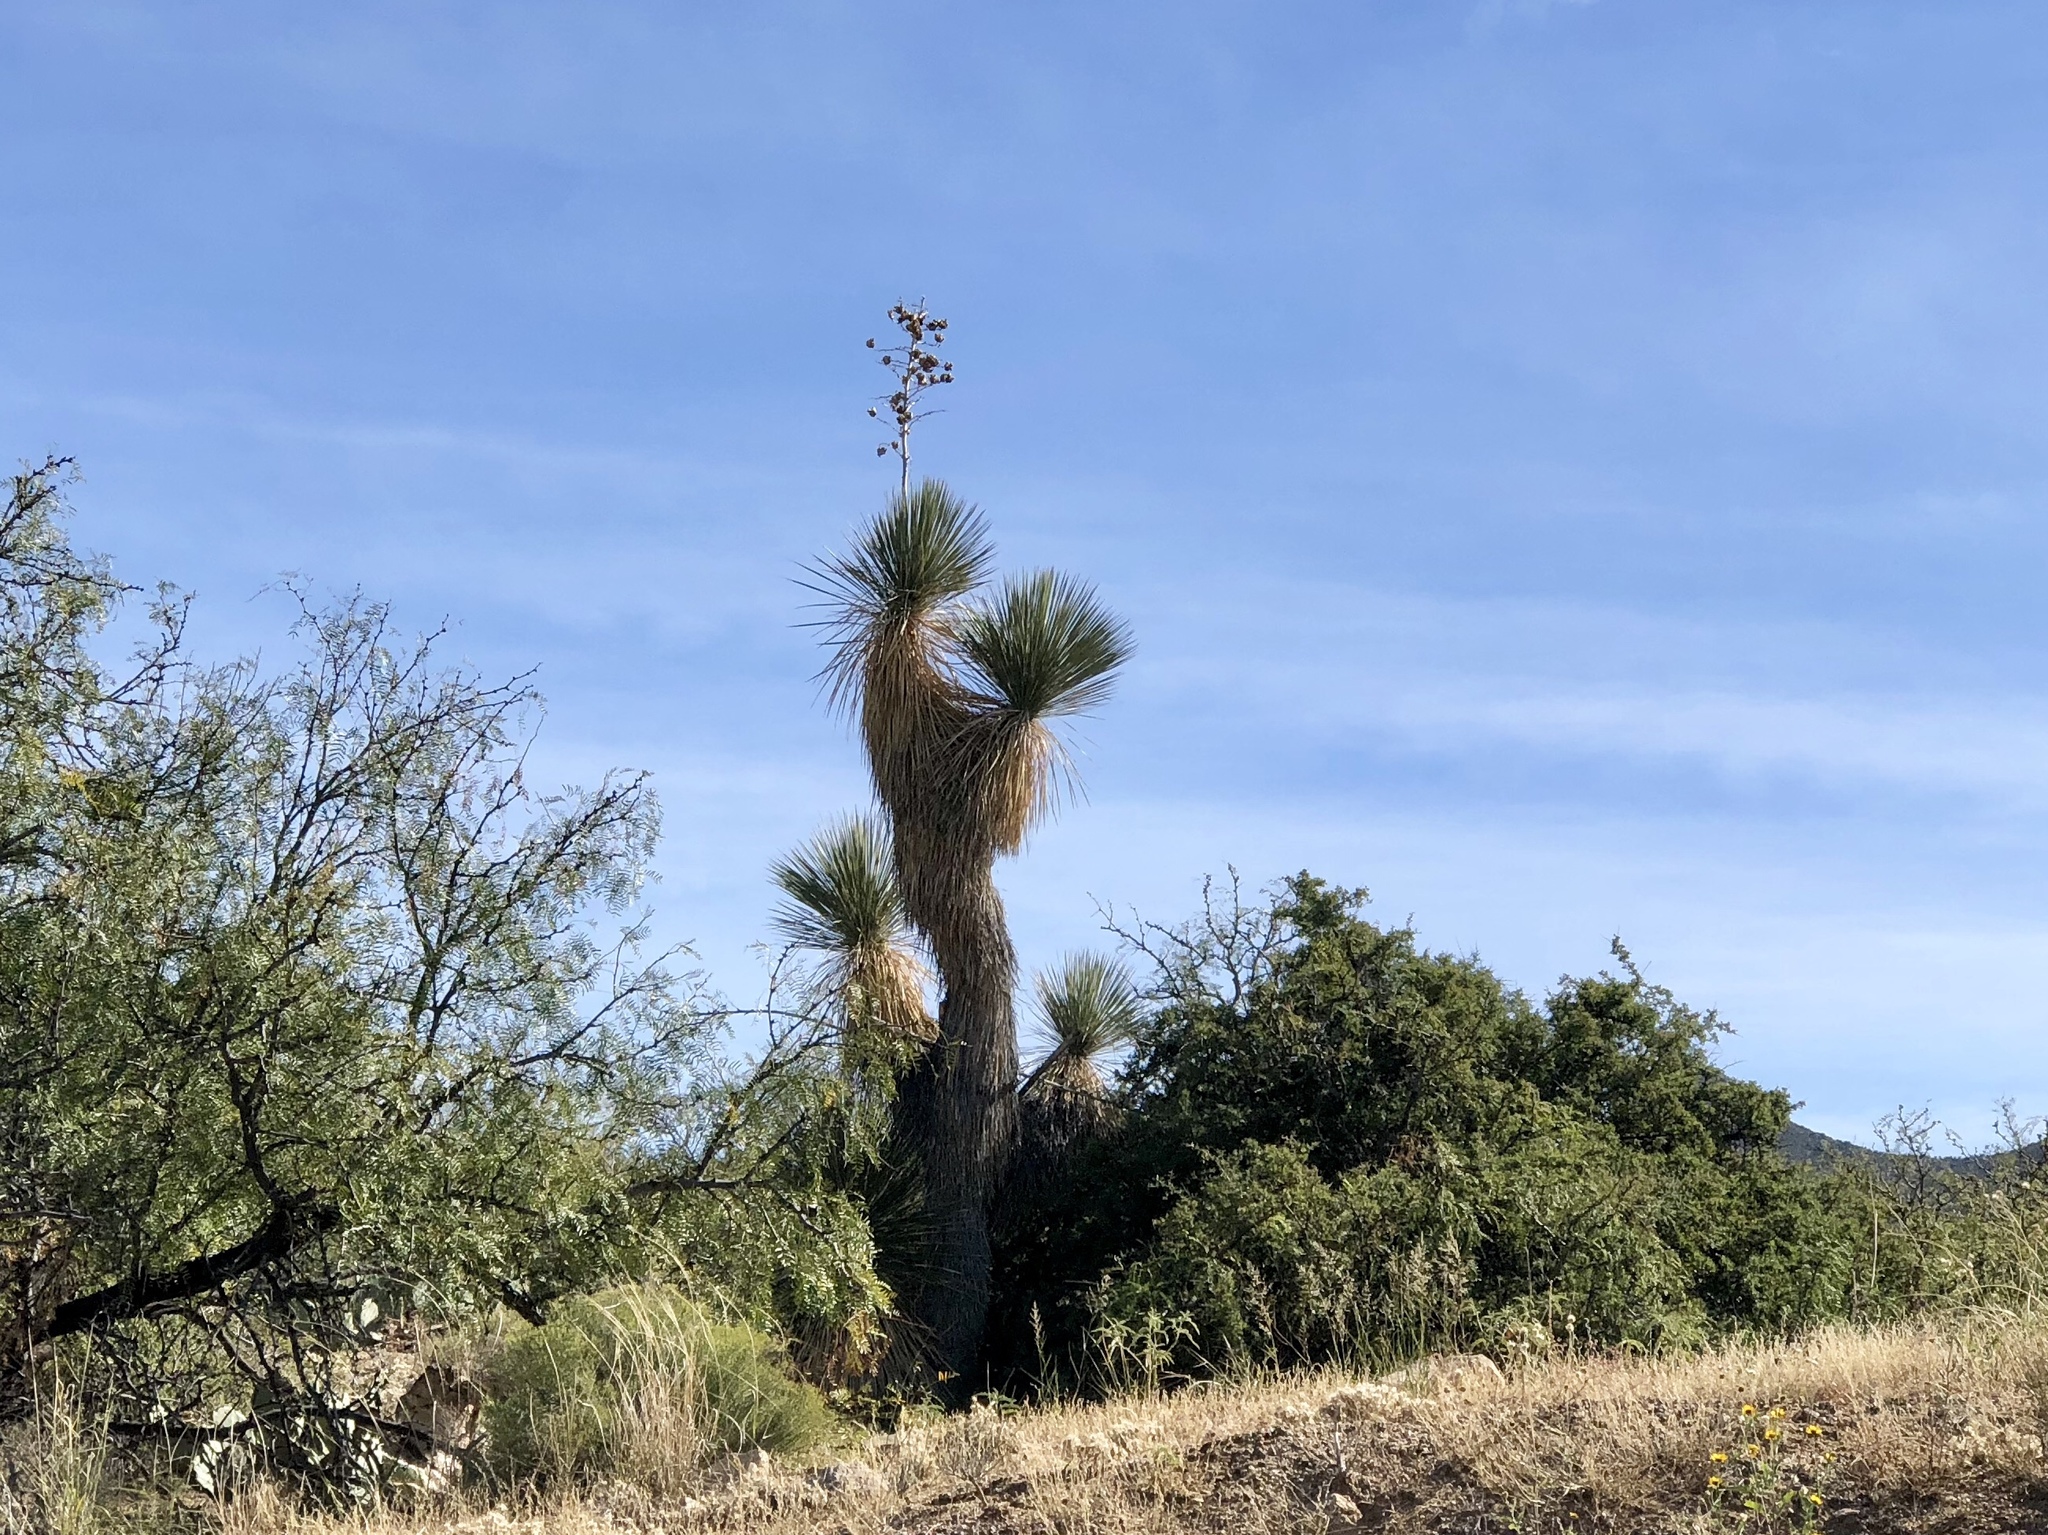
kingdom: Plantae
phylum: Tracheophyta
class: Liliopsida
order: Asparagales
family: Asparagaceae
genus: Yucca
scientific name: Yucca elata
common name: Palmella
